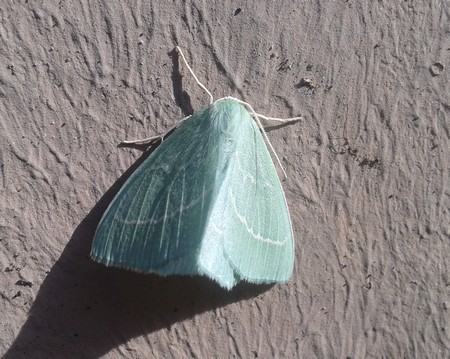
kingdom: Animalia
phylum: Arthropoda
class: Insecta
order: Lepidoptera
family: Geometridae
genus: Hemistola
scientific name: Hemistola chrysoprasaria
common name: Small emerald
